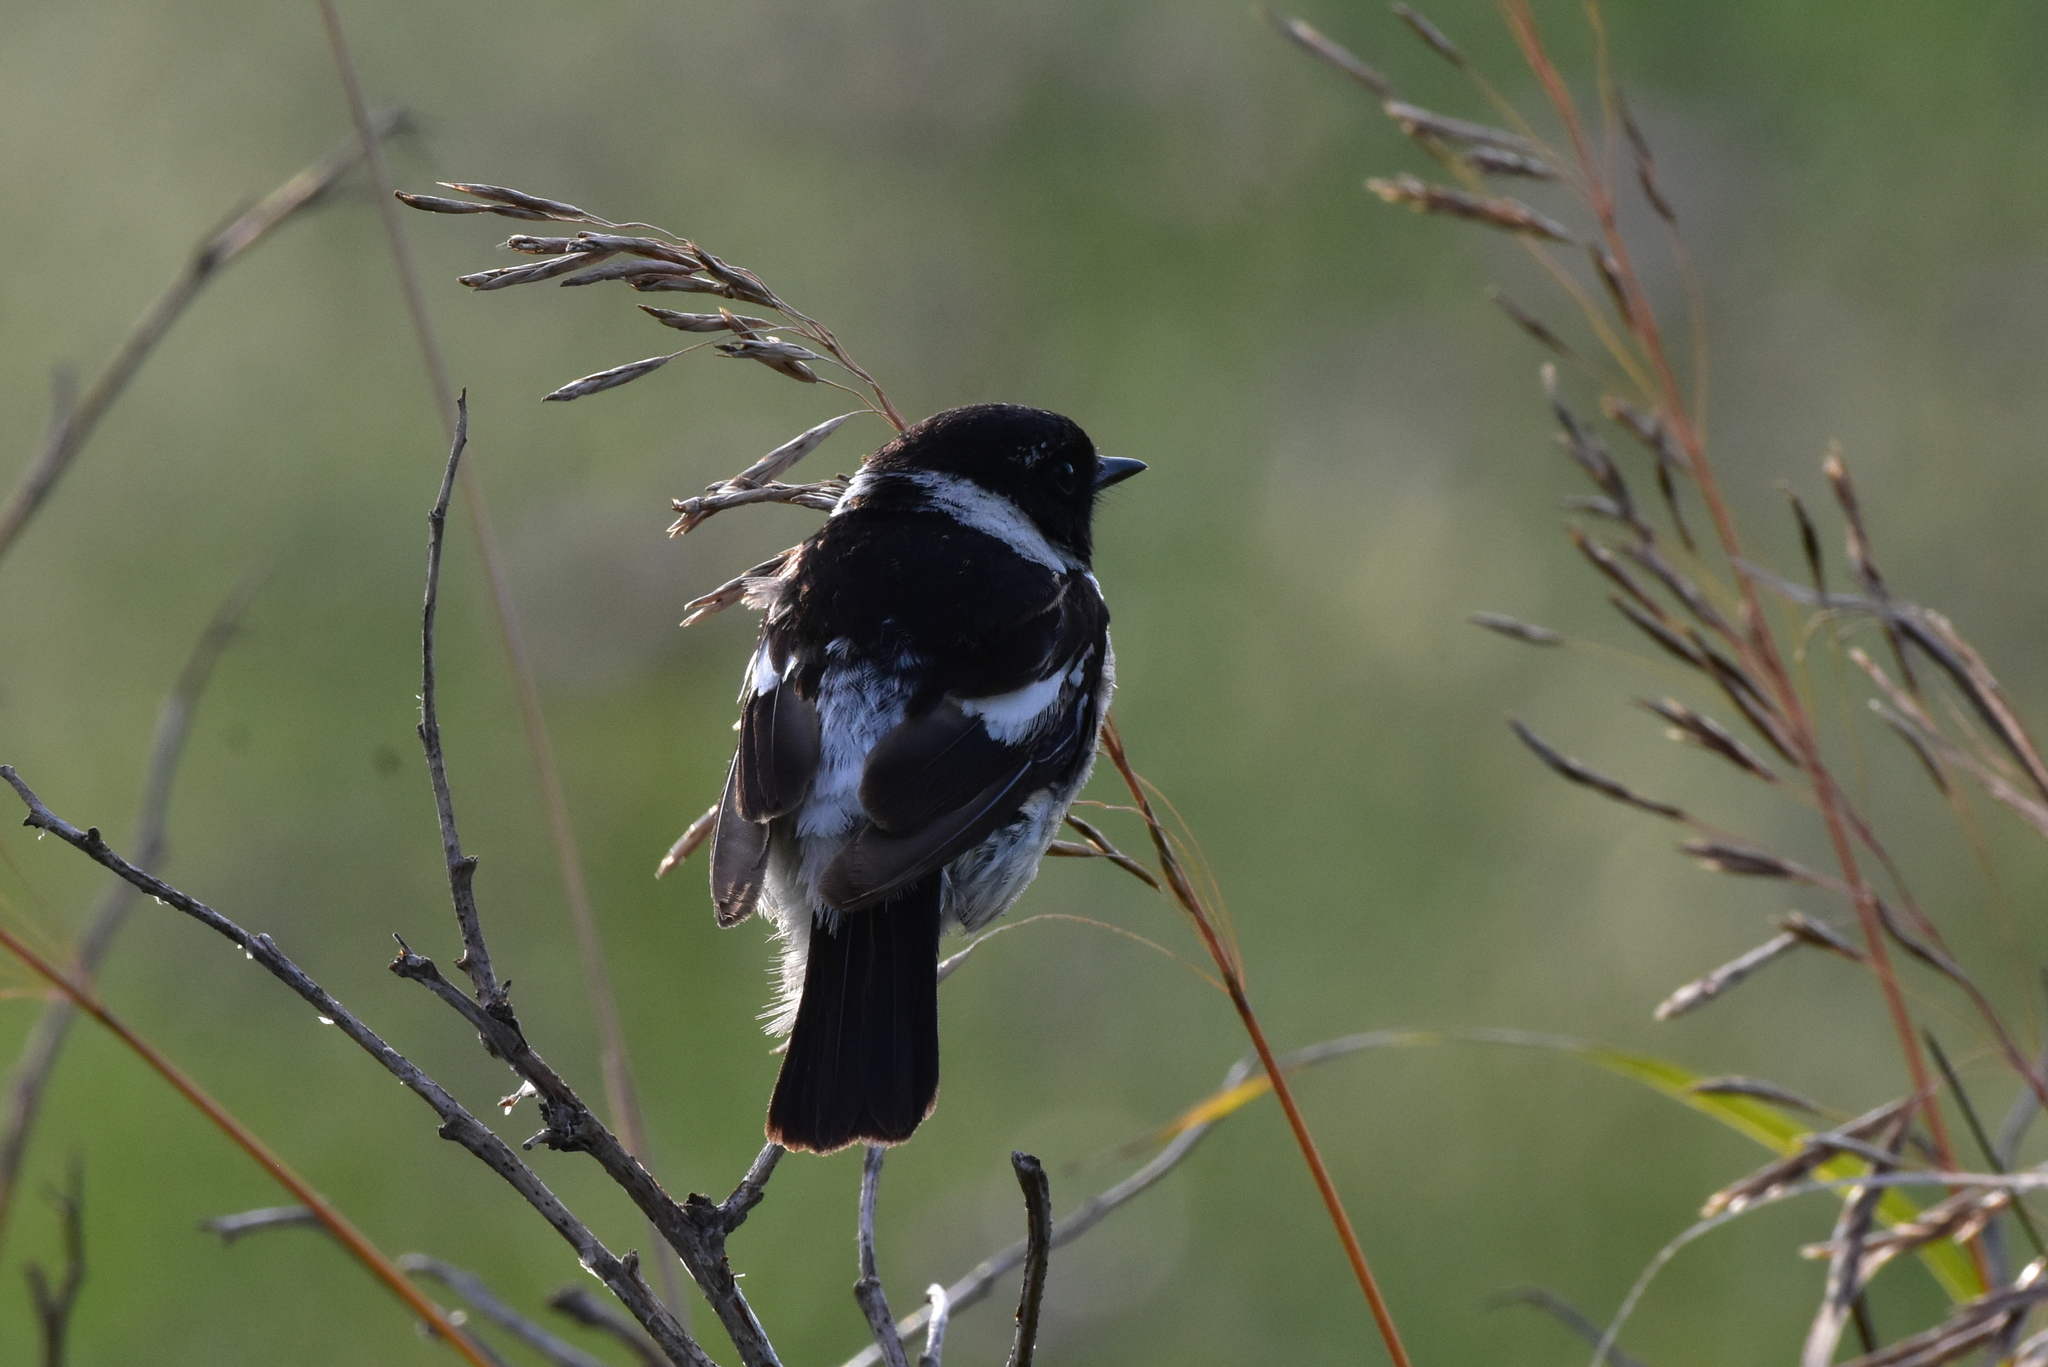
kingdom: Animalia
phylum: Chordata
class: Aves
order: Passeriformes
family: Muscicapidae
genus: Saxicola
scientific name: Saxicola maurus
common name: Siberian stonechat
